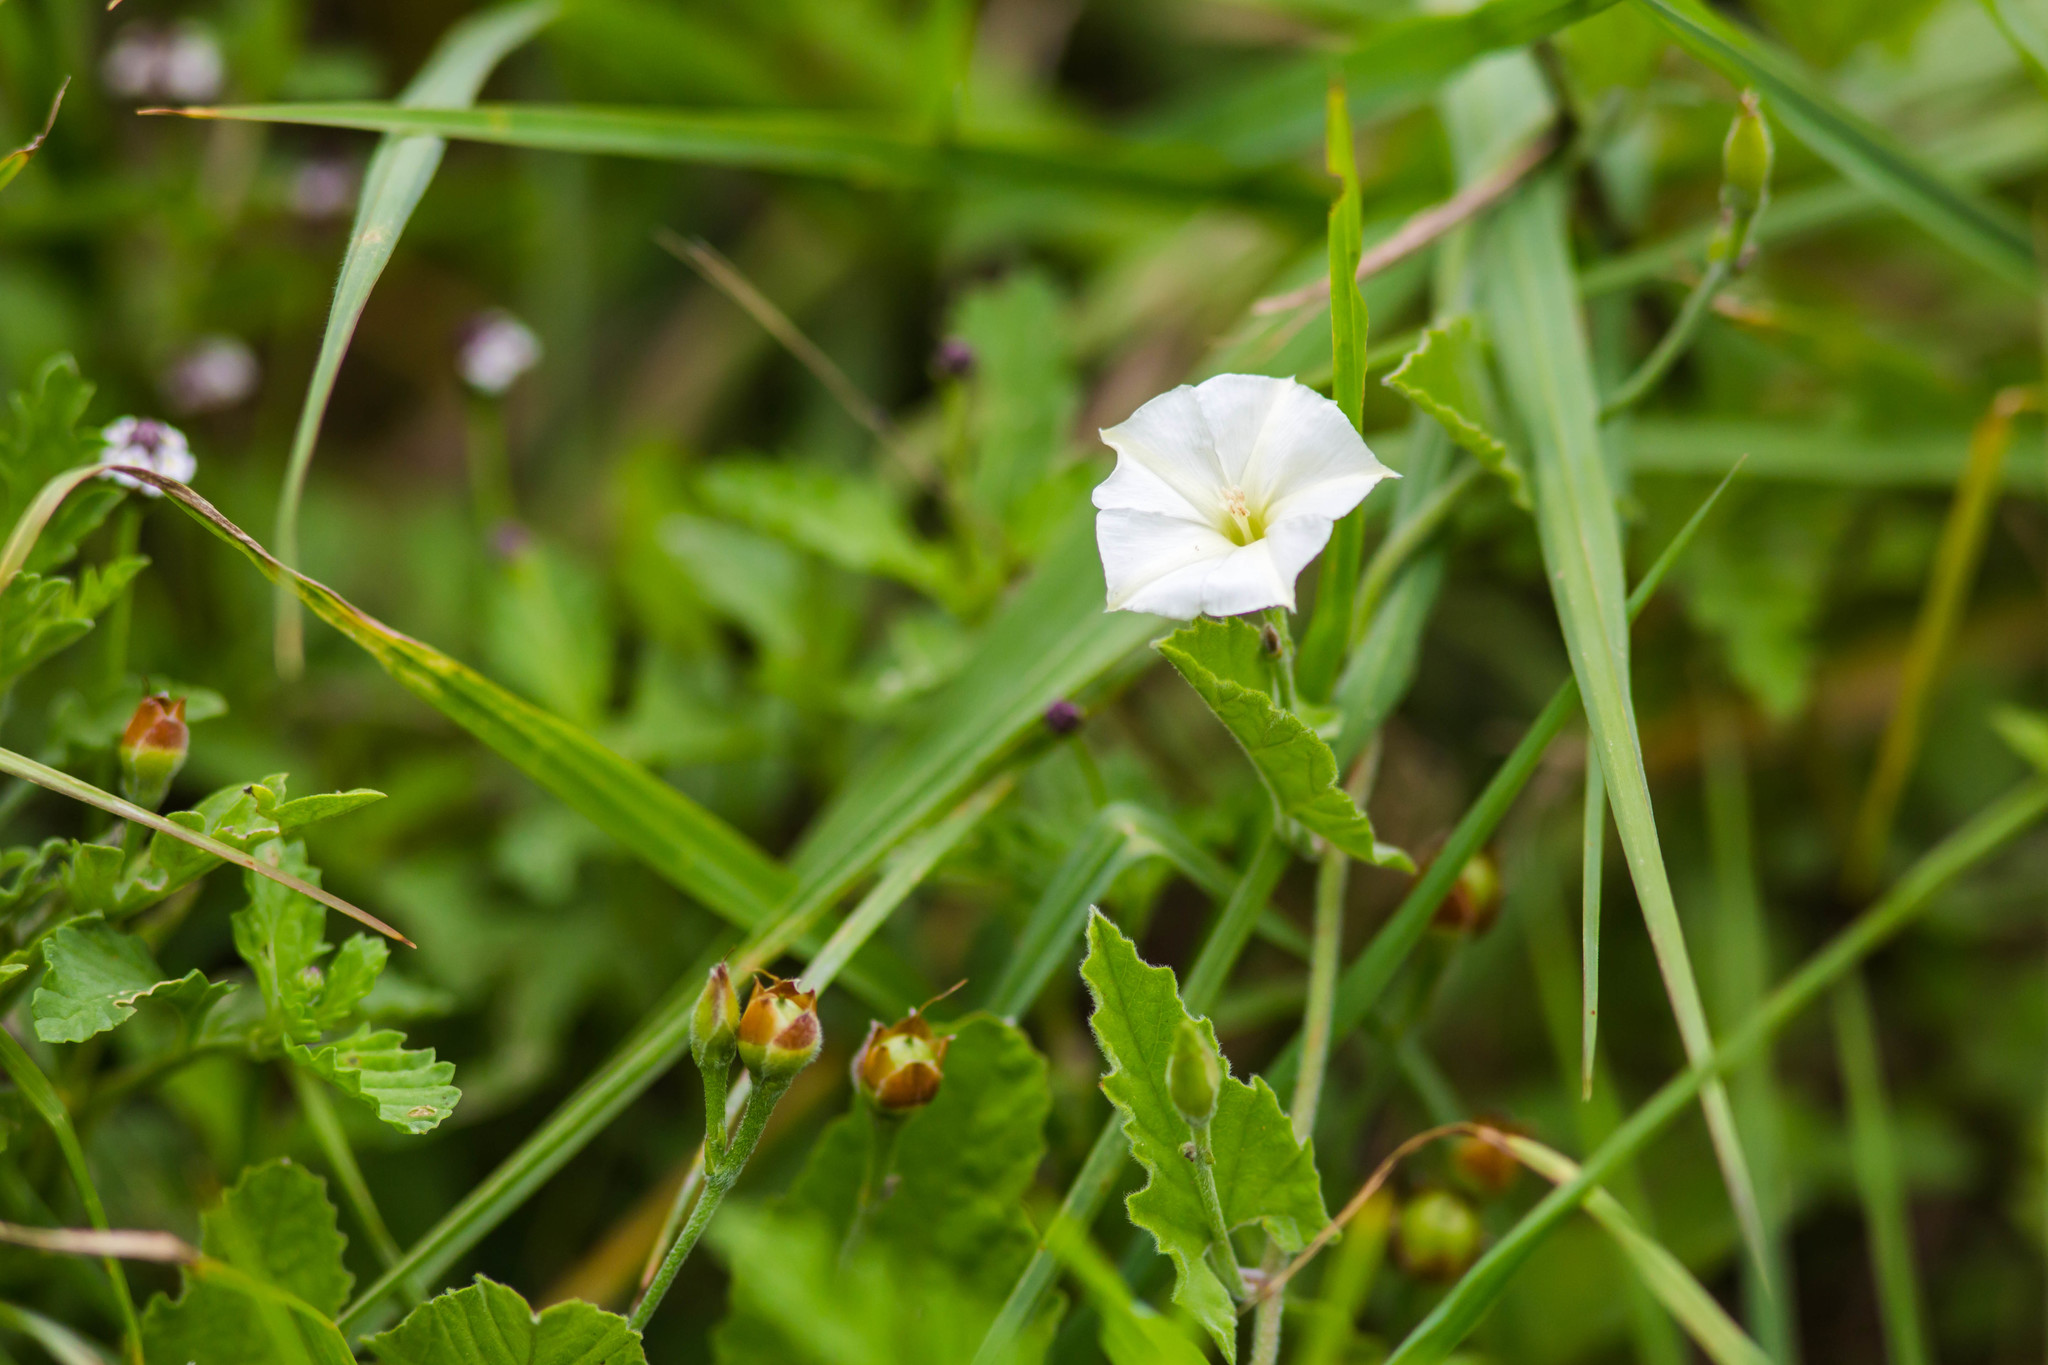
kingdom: Plantae
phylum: Tracheophyta
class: Magnoliopsida
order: Solanales
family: Convolvulaceae
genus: Convolvulus
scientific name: Convolvulus equitans
